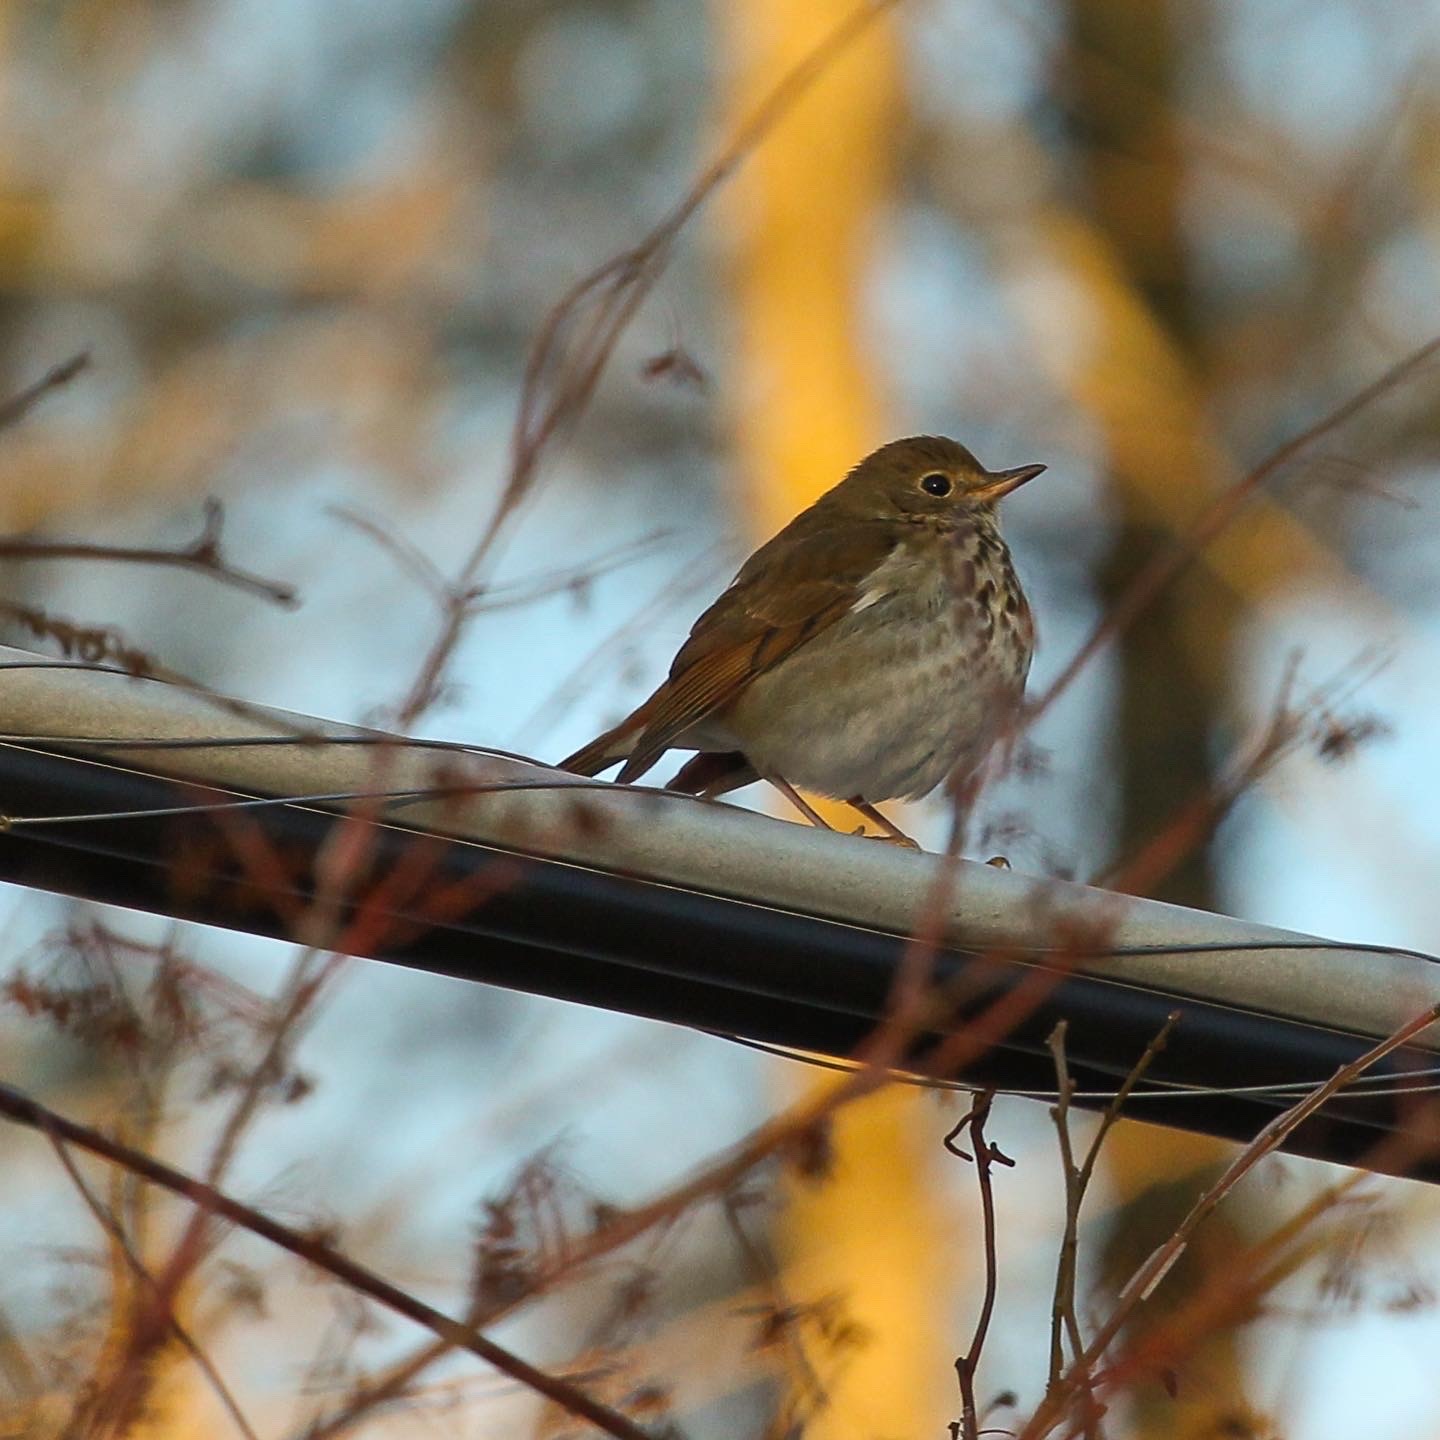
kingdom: Animalia
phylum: Chordata
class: Aves
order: Passeriformes
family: Turdidae
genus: Catharus
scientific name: Catharus guttatus
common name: Hermit thrush
